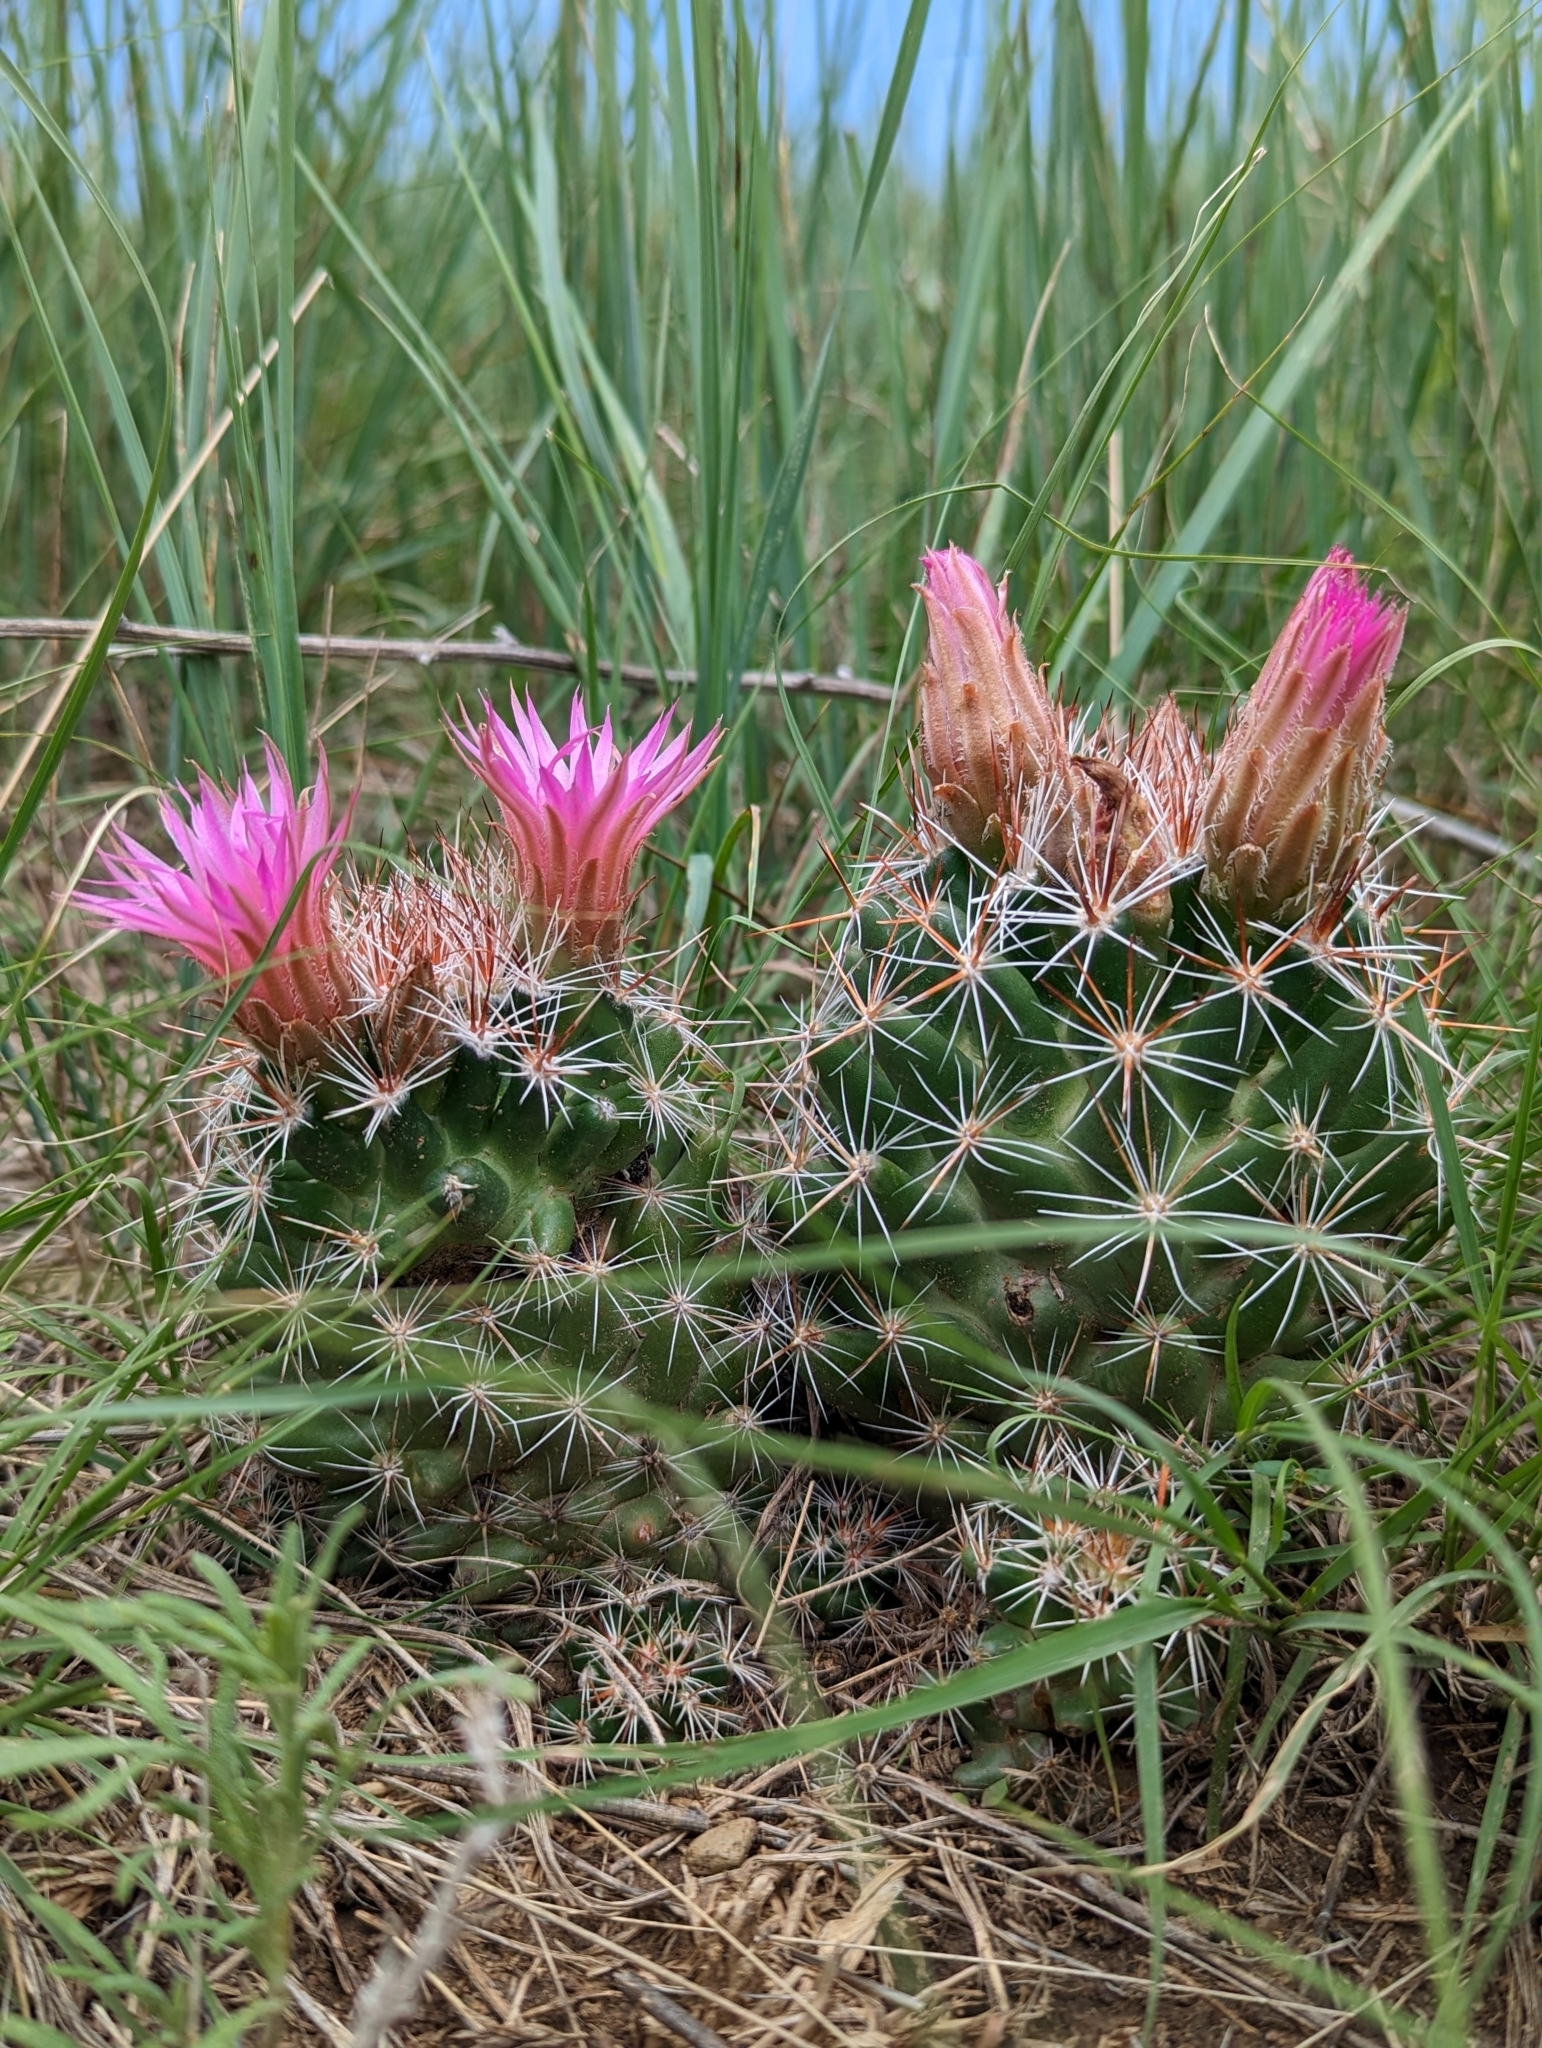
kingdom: Plantae
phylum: Tracheophyta
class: Magnoliopsida
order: Caryophyllales
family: Cactaceae
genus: Pelecyphora
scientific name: Pelecyphora vivipara
